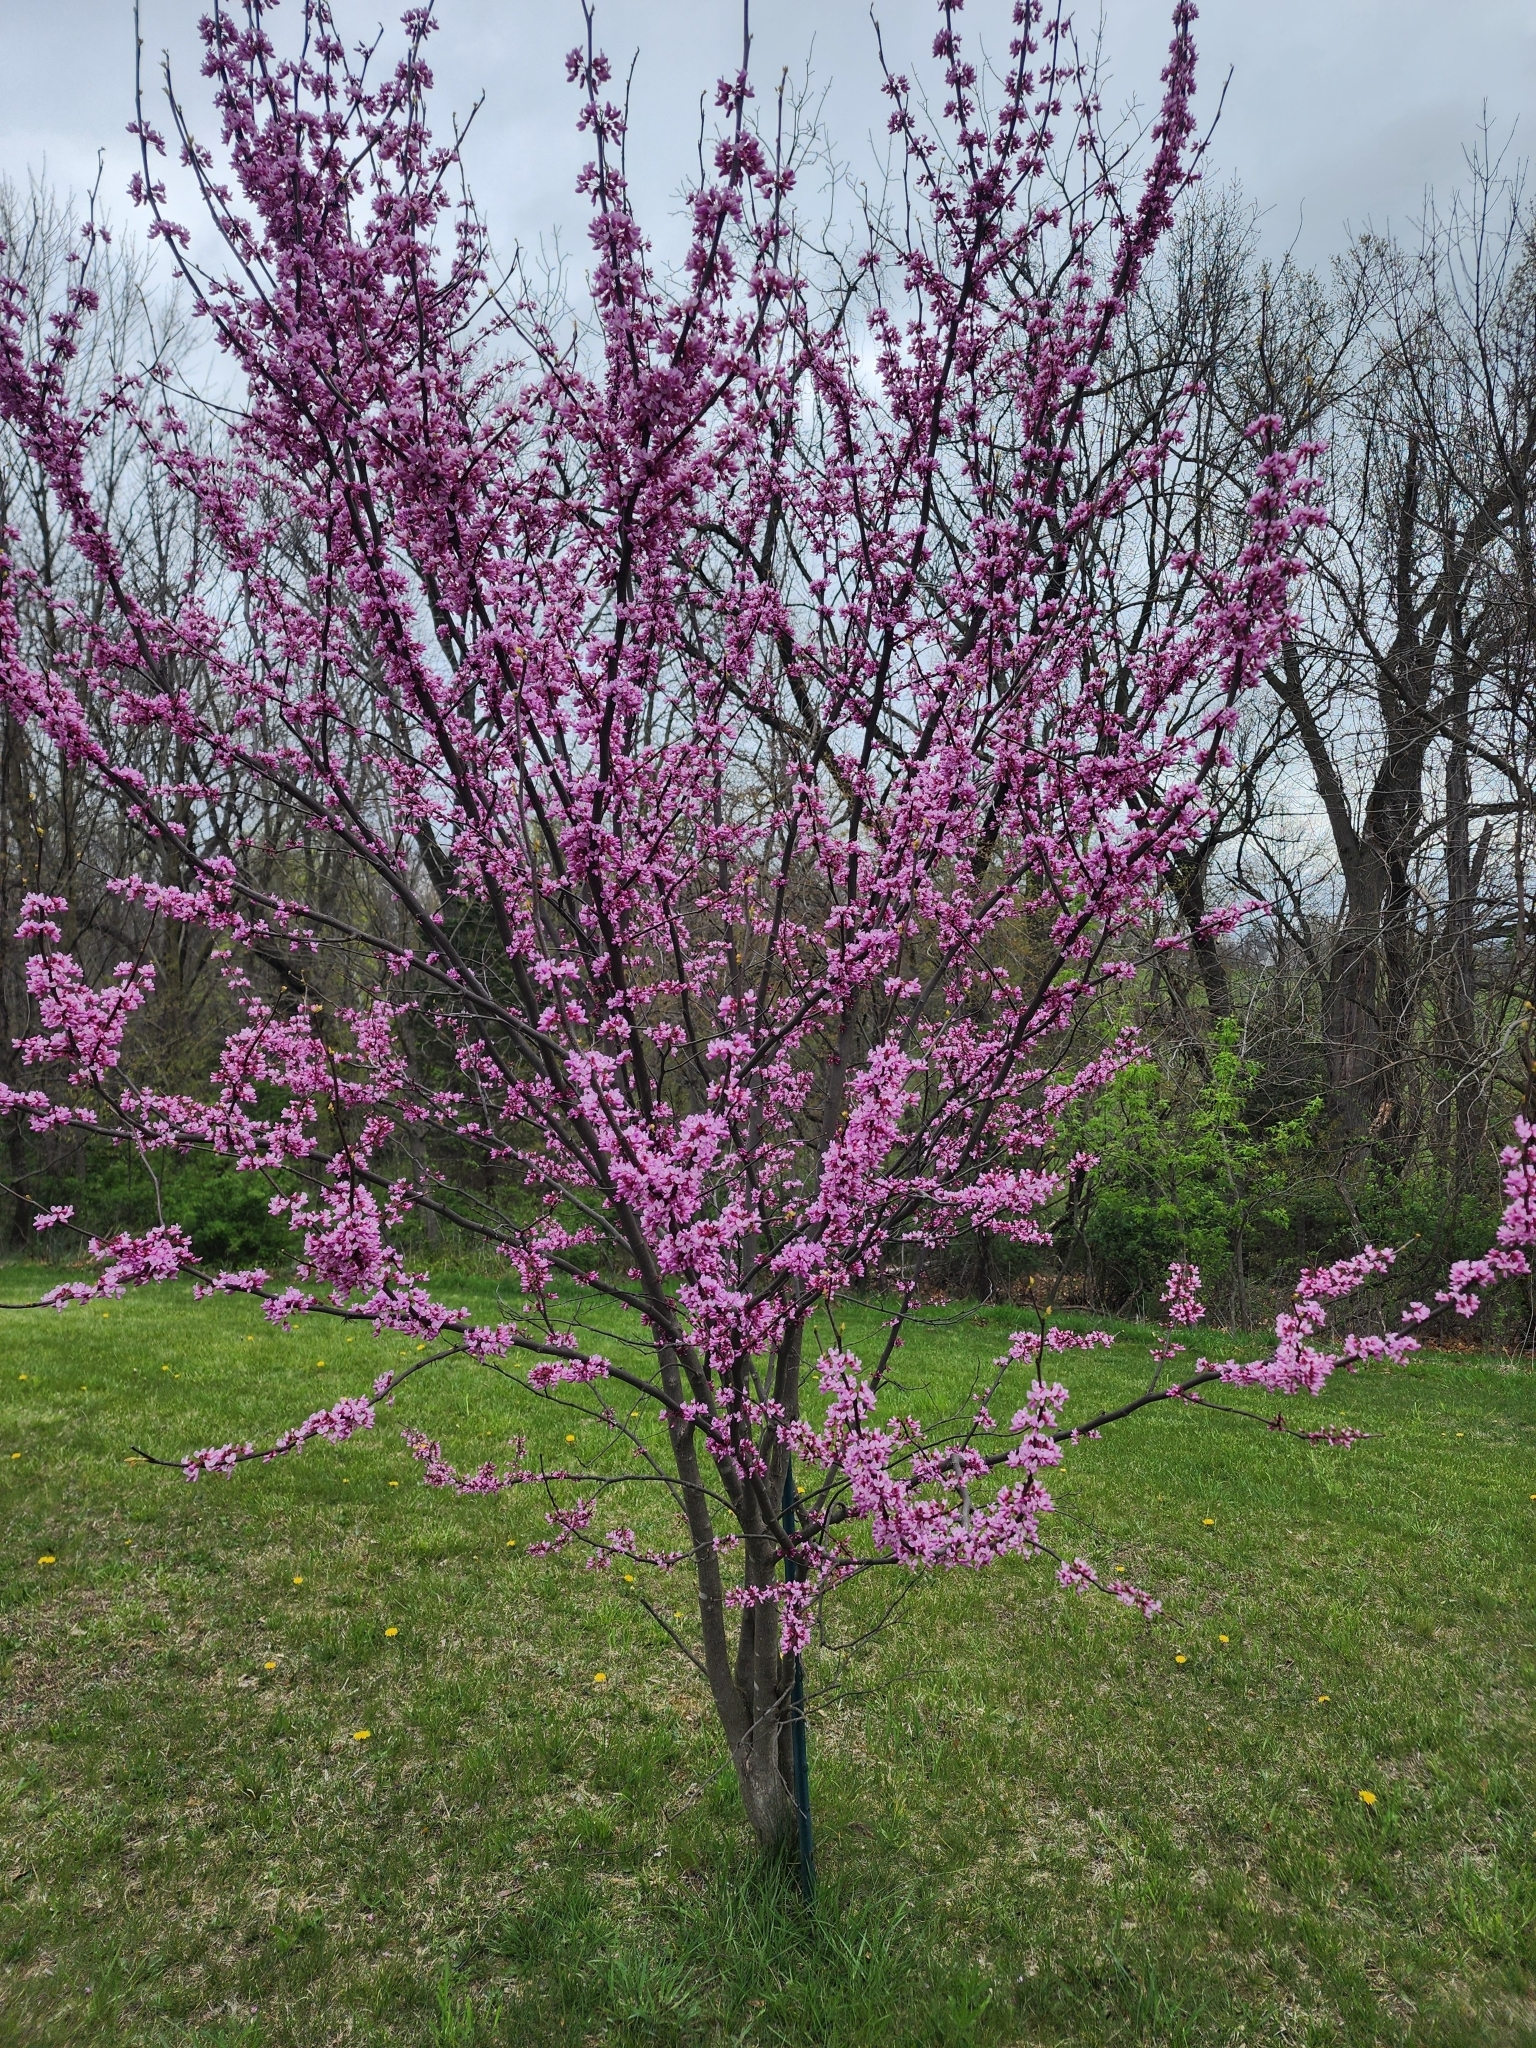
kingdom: Plantae
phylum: Tracheophyta
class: Magnoliopsida
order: Fabales
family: Fabaceae
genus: Cercis
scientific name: Cercis canadensis
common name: Eastern redbud
